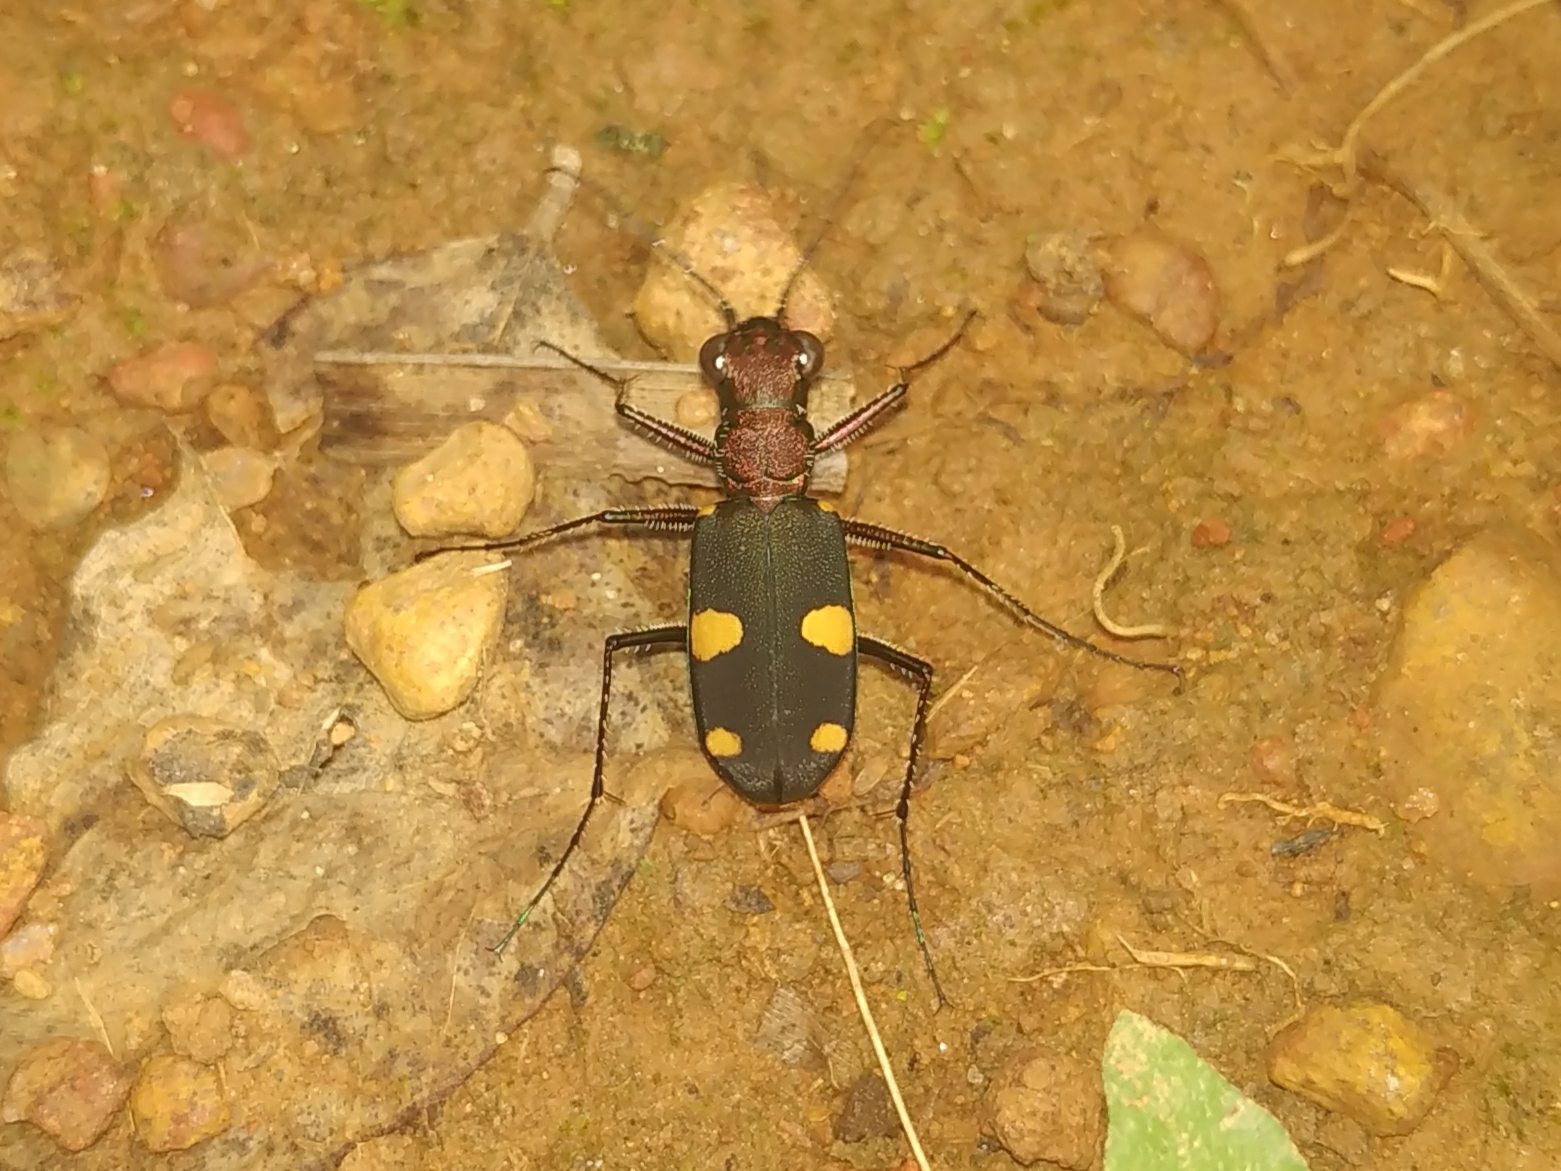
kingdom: Animalia
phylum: Arthropoda
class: Insecta
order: Coleoptera
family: Carabidae
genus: Cicindela
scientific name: Cicindela bicolor
